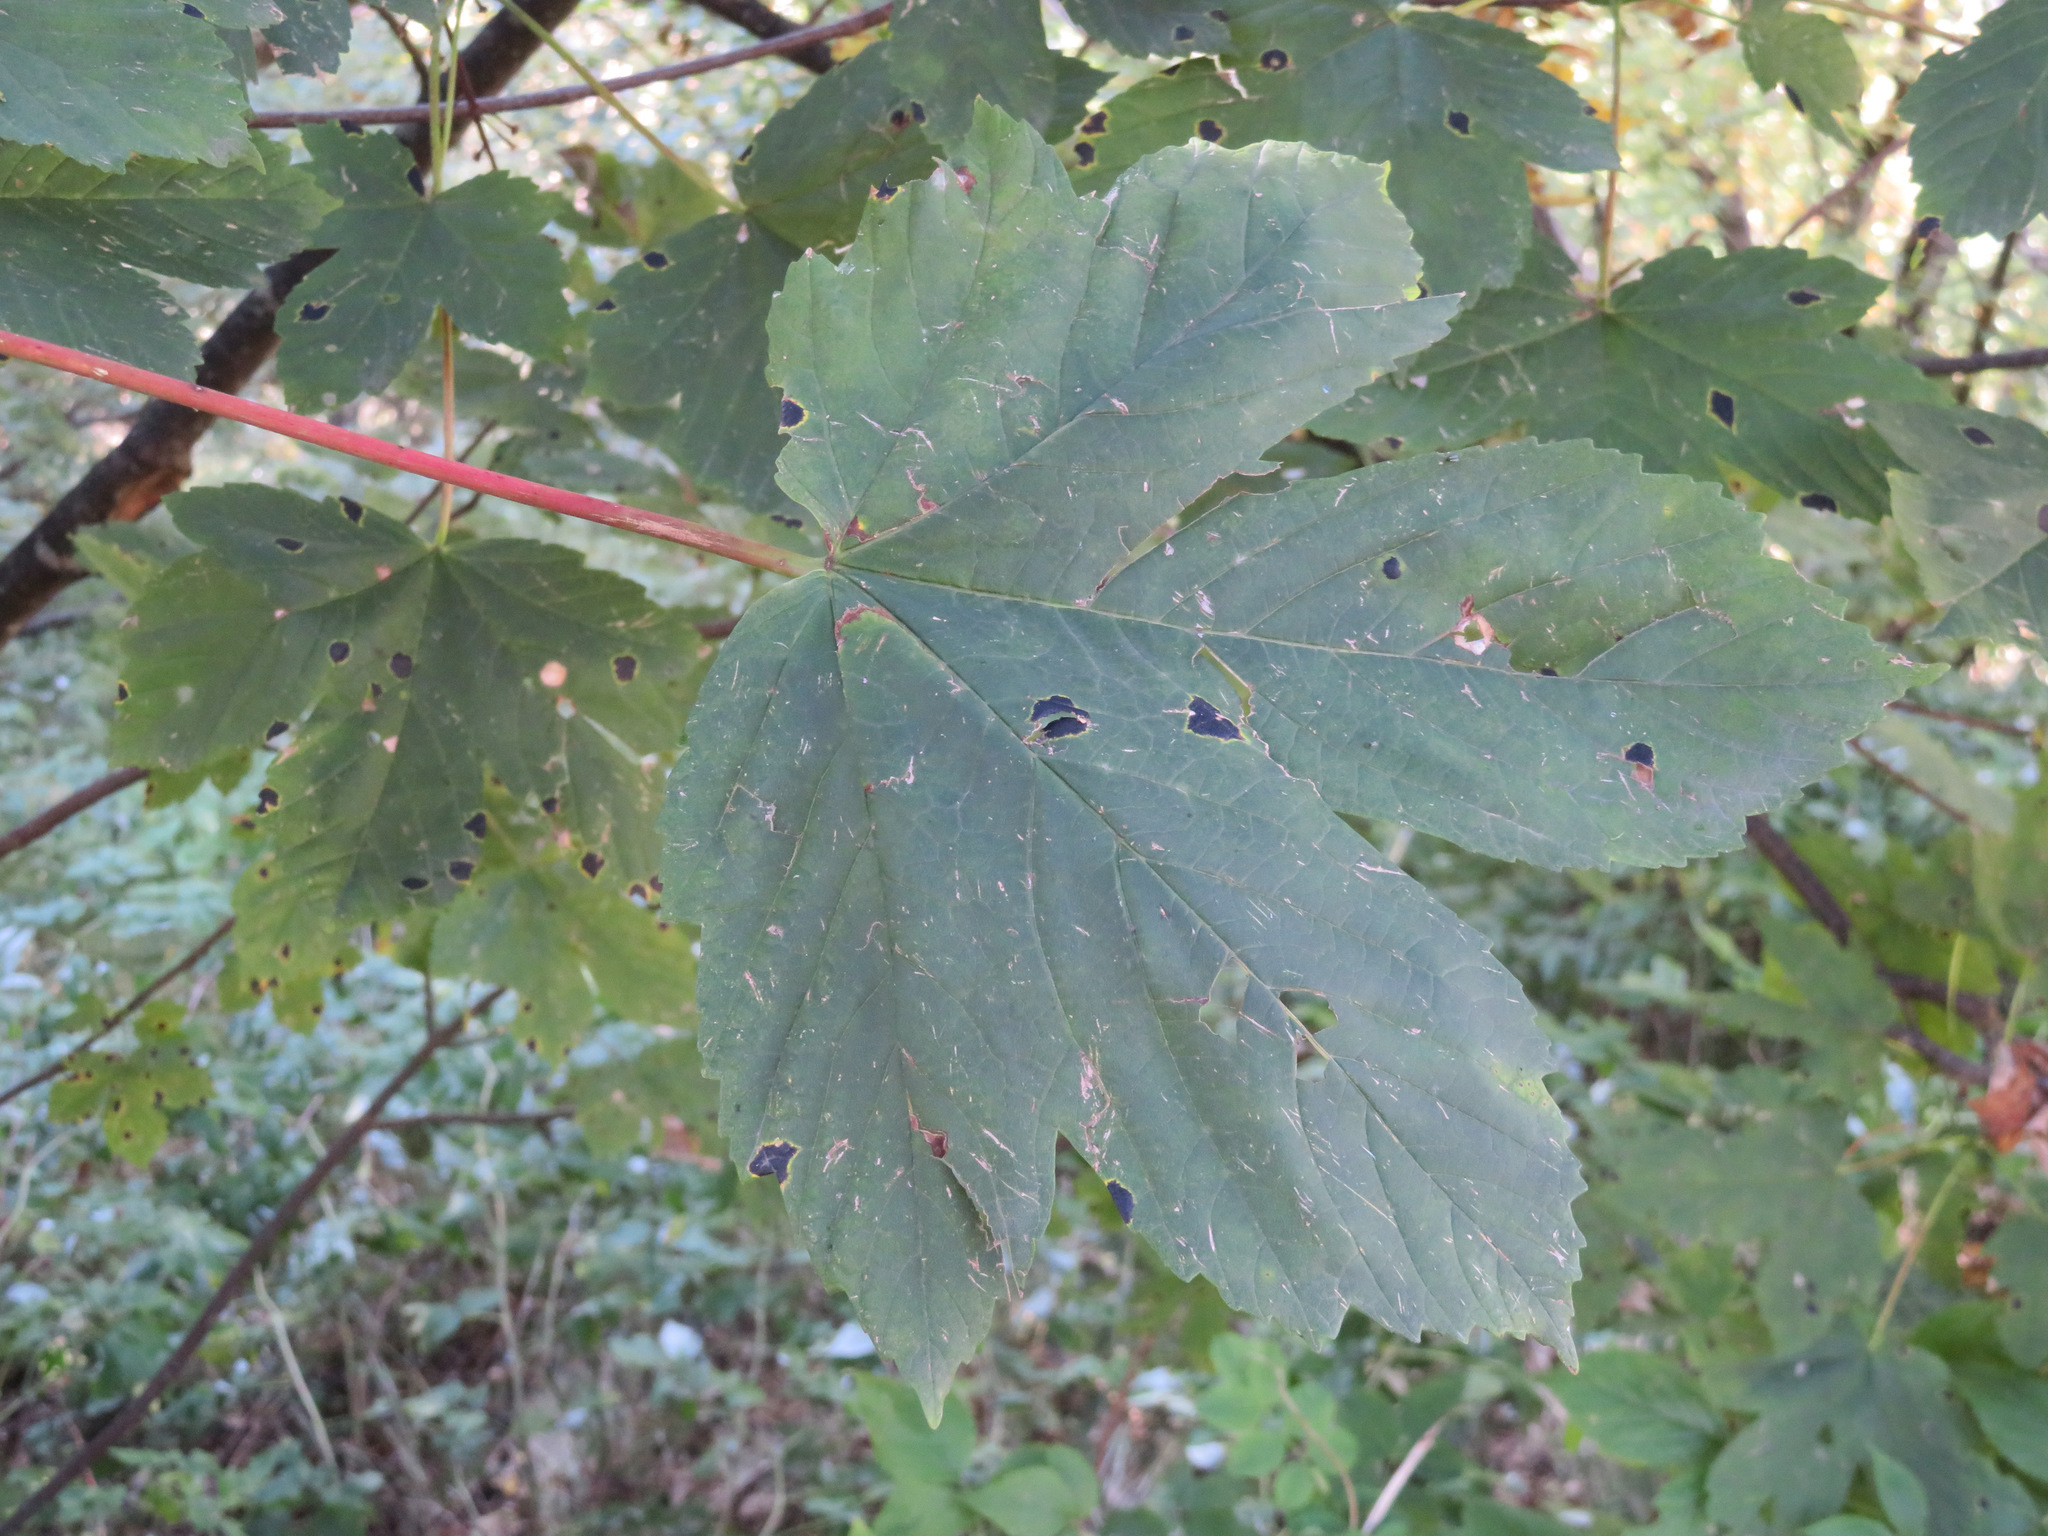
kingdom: Plantae
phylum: Tracheophyta
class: Magnoliopsida
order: Sapindales
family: Sapindaceae
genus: Acer
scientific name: Acer pseudoplatanus
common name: Sycamore
